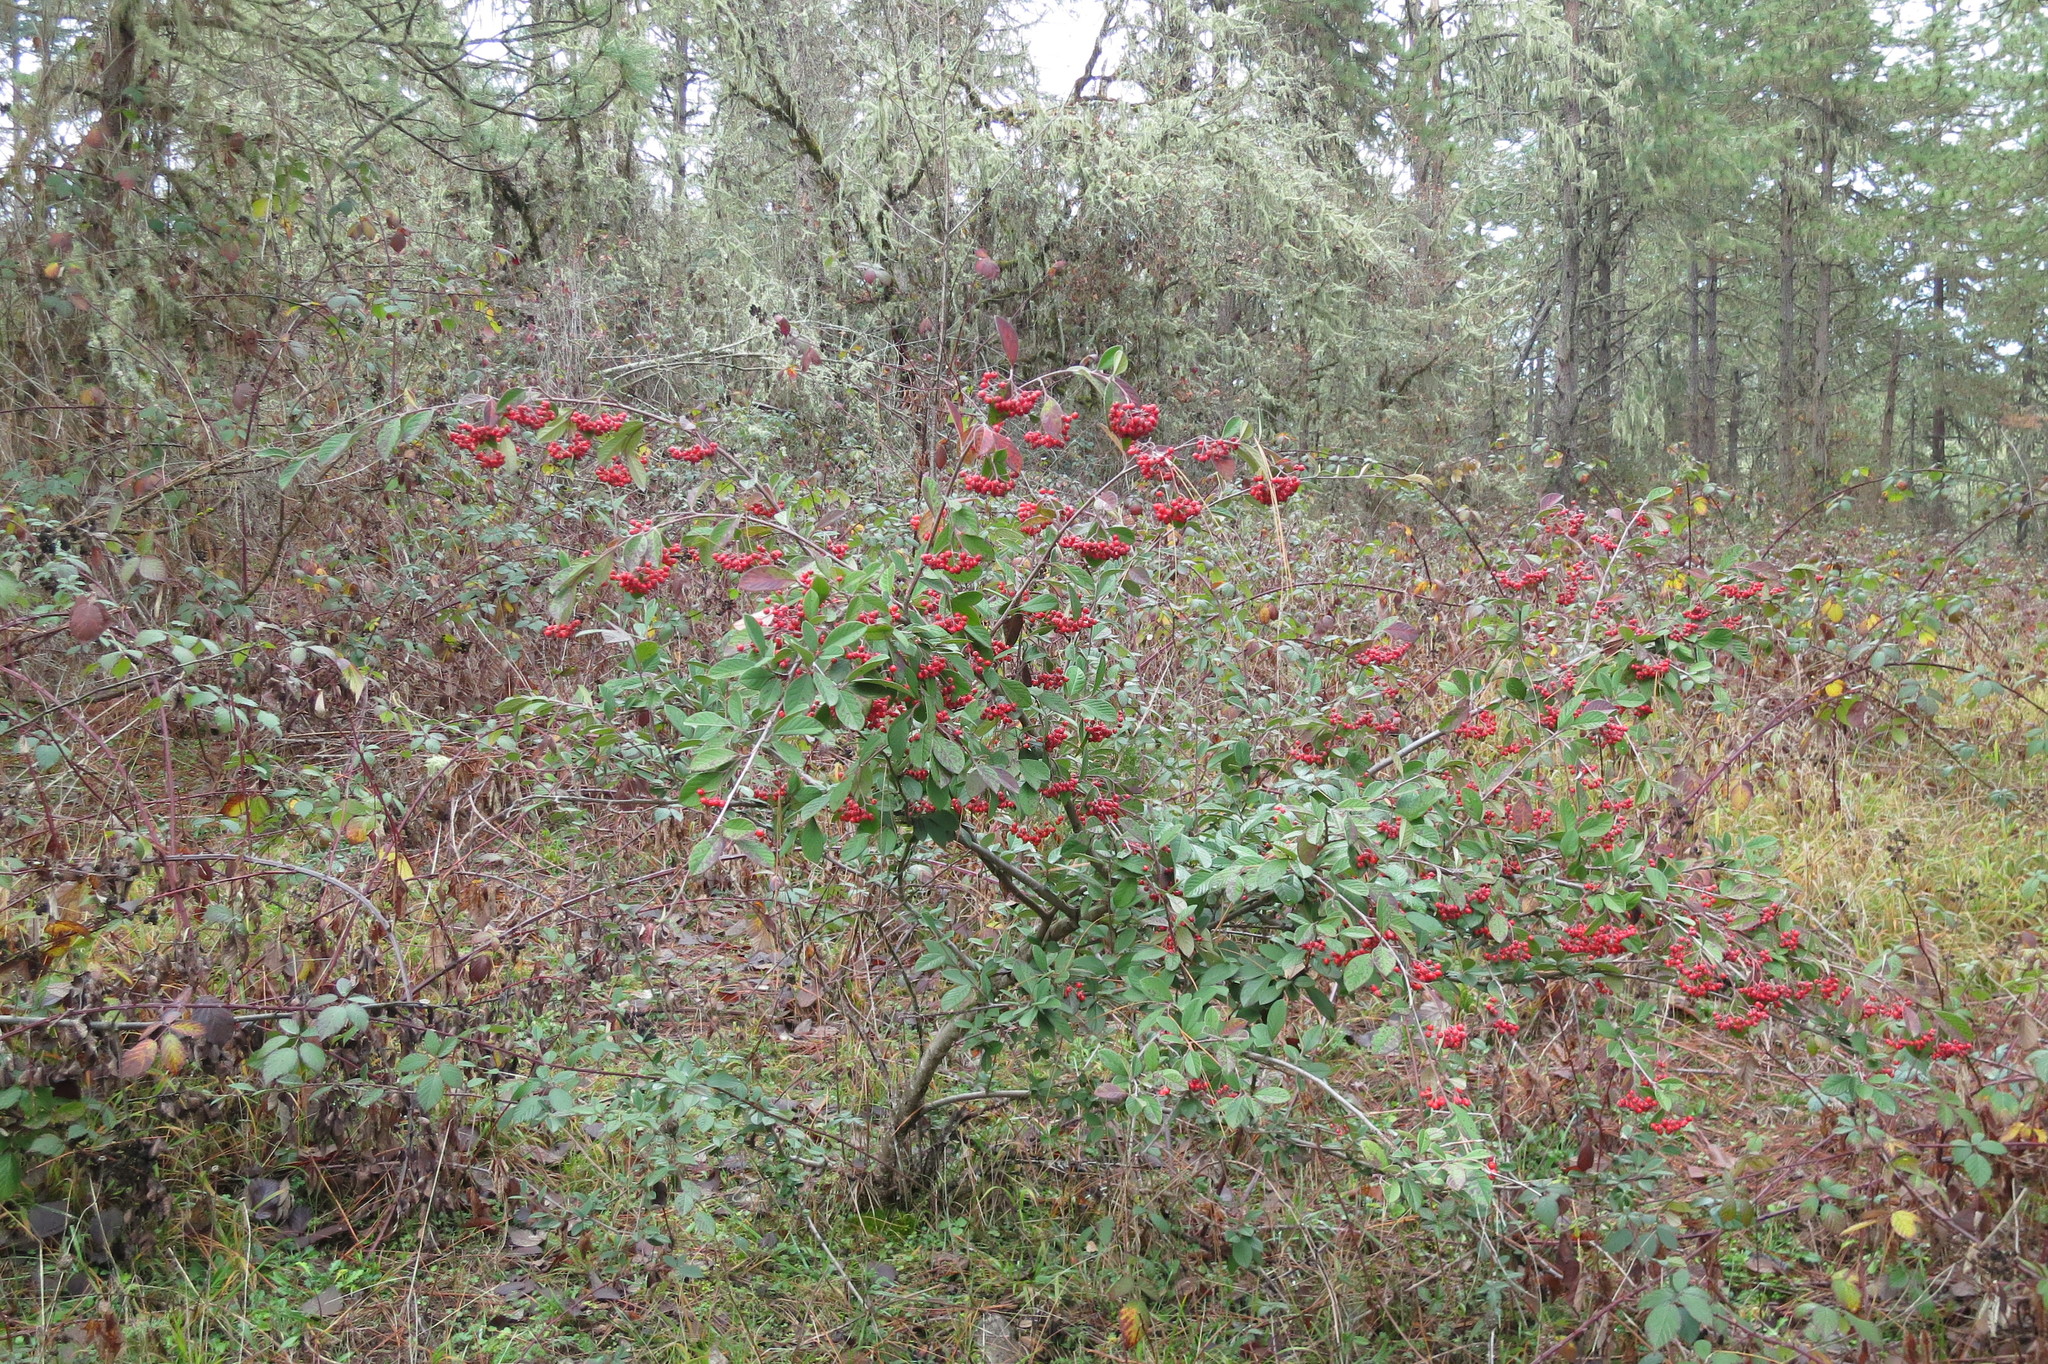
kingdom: Plantae
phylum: Tracheophyta
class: Magnoliopsida
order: Rosales
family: Rosaceae
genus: Cotoneaster
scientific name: Cotoneaster coriaceus
